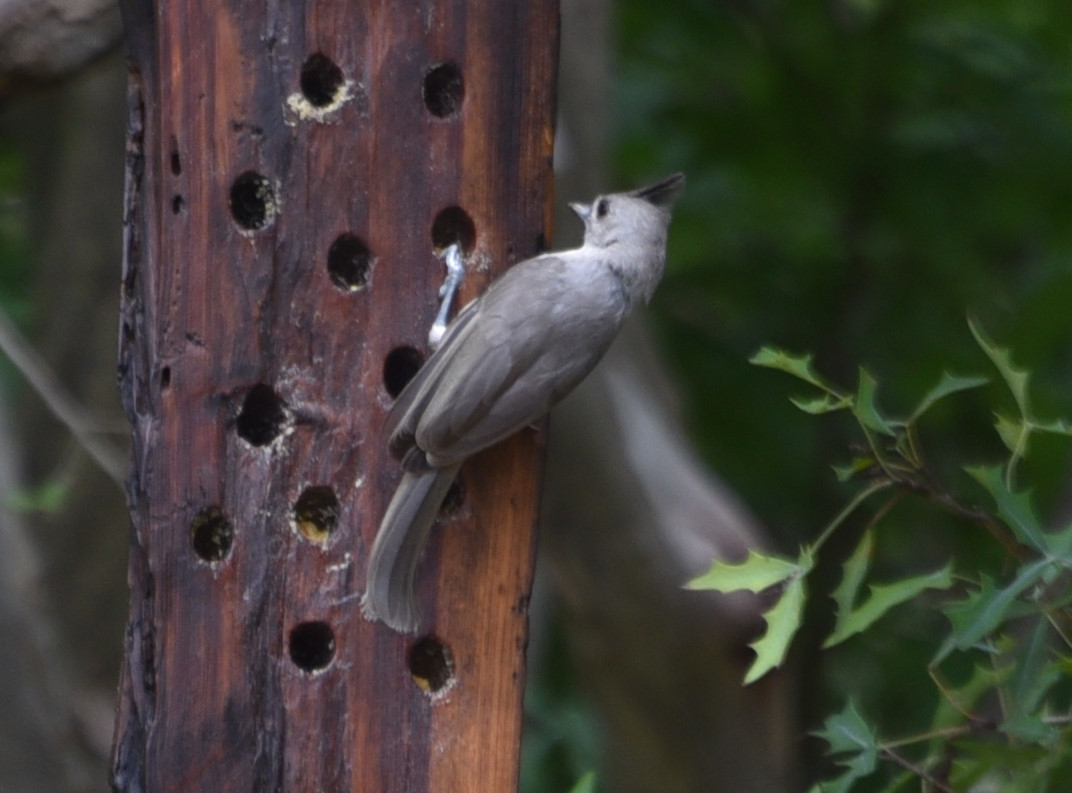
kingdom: Animalia
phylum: Chordata
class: Aves
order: Passeriformes
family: Paridae
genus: Baeolophus
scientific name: Baeolophus atricristatus
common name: Black-crested titmouse
